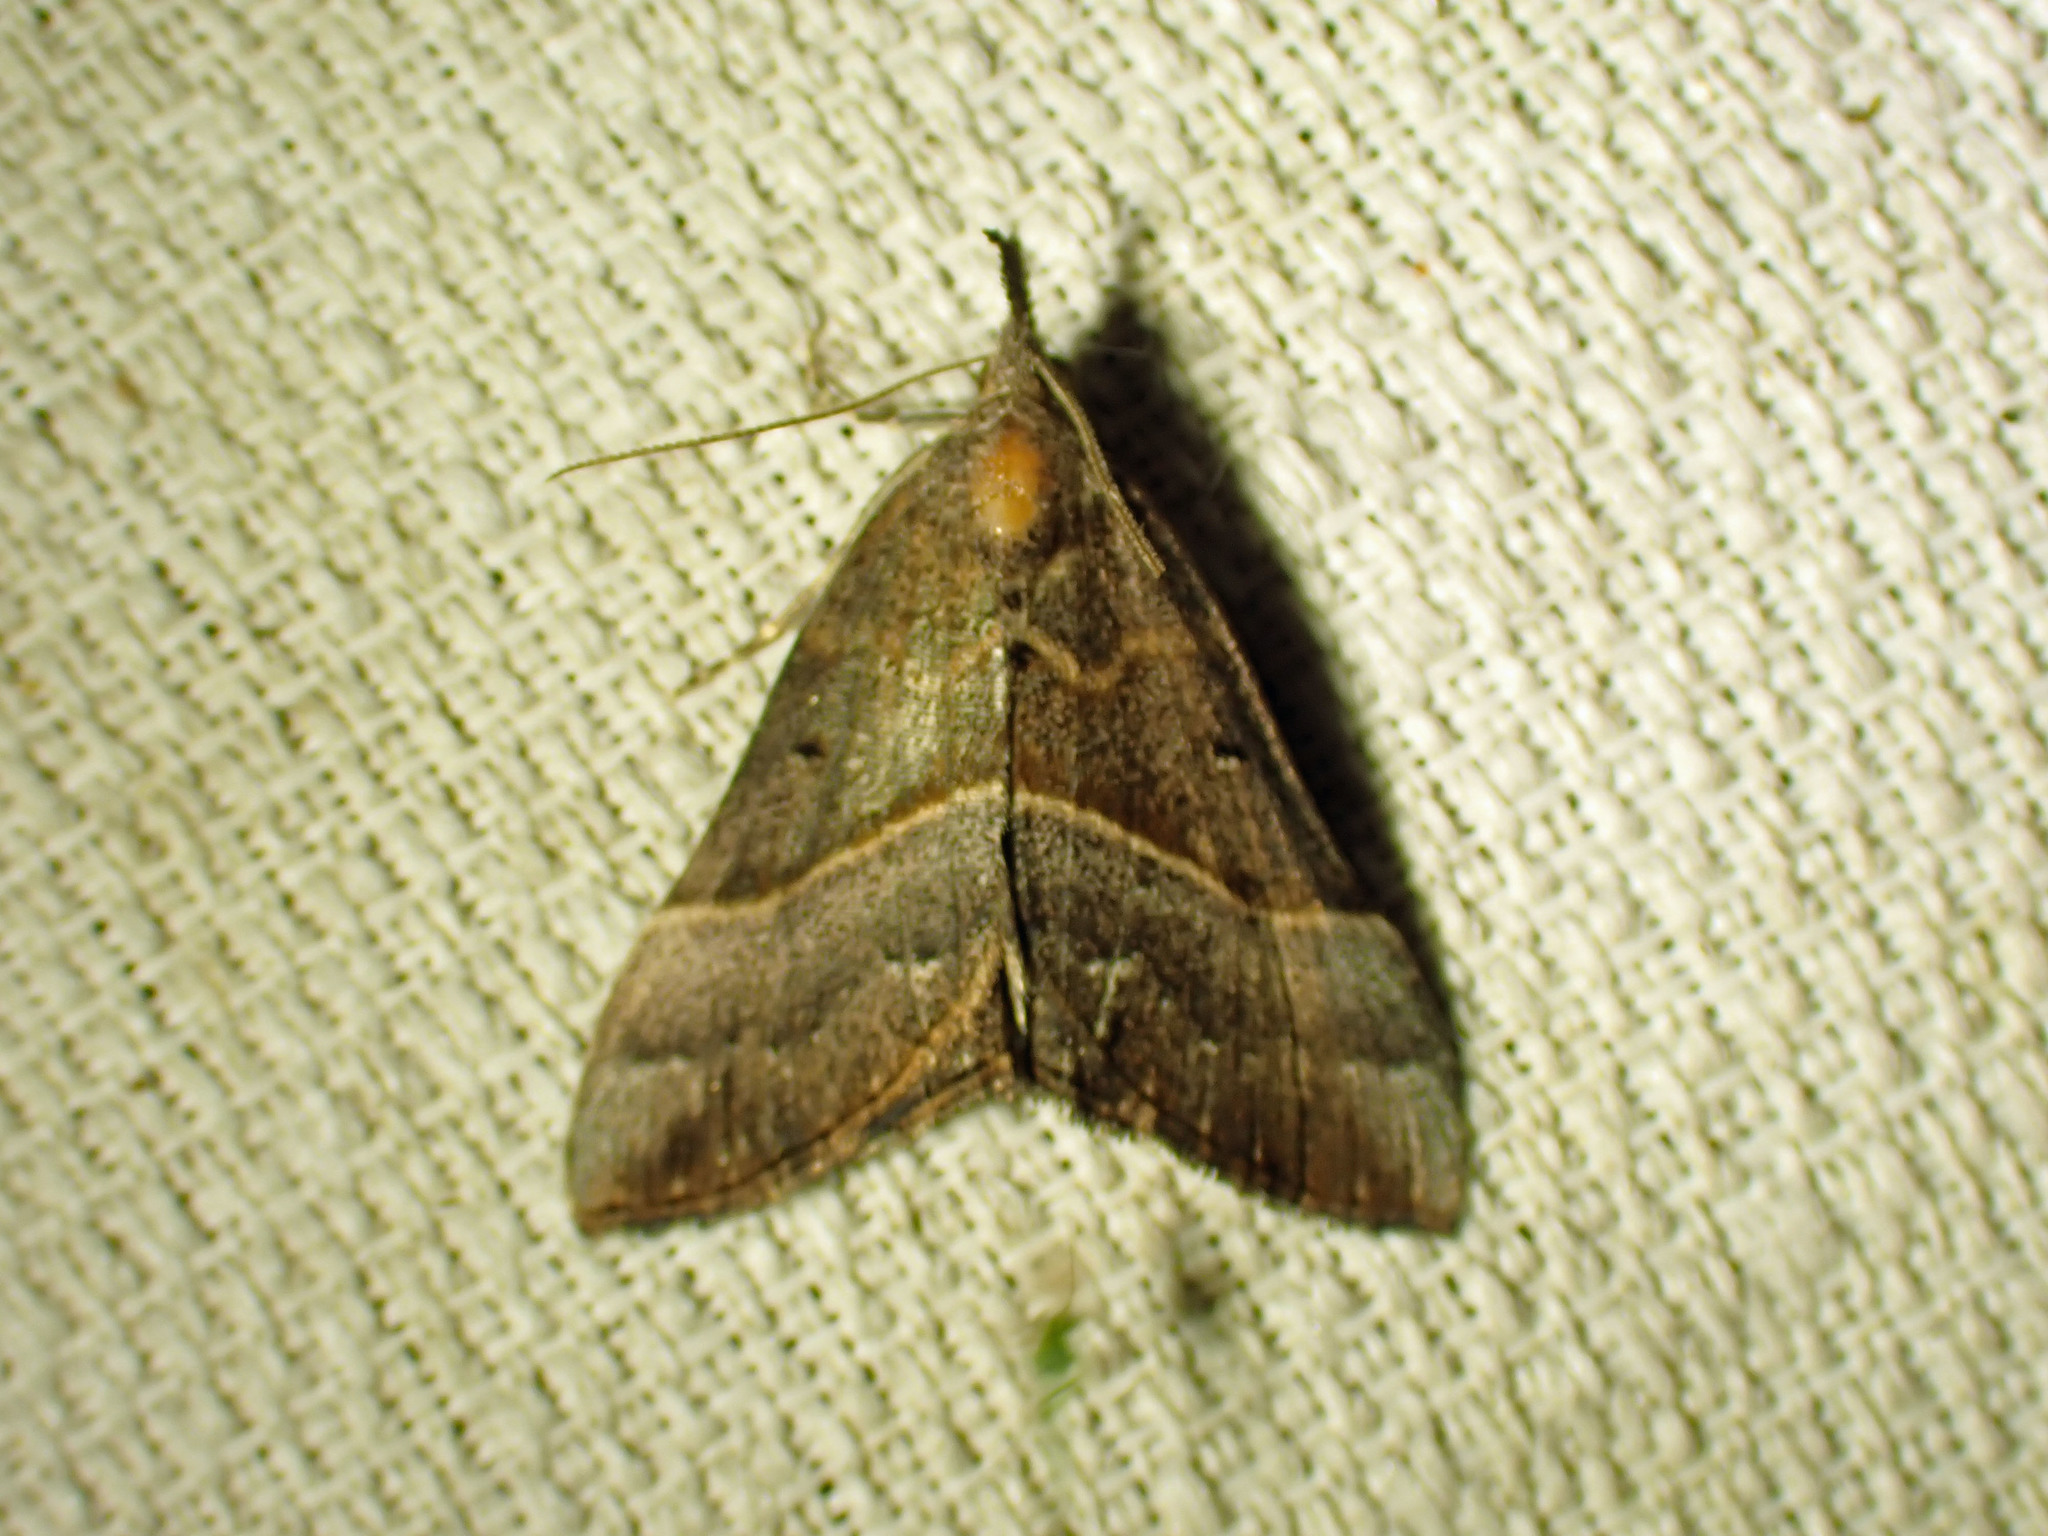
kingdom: Animalia
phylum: Arthropoda
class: Insecta
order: Lepidoptera
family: Erebidae
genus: Hypena
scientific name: Hypena eductalis
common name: Red-footed snout
